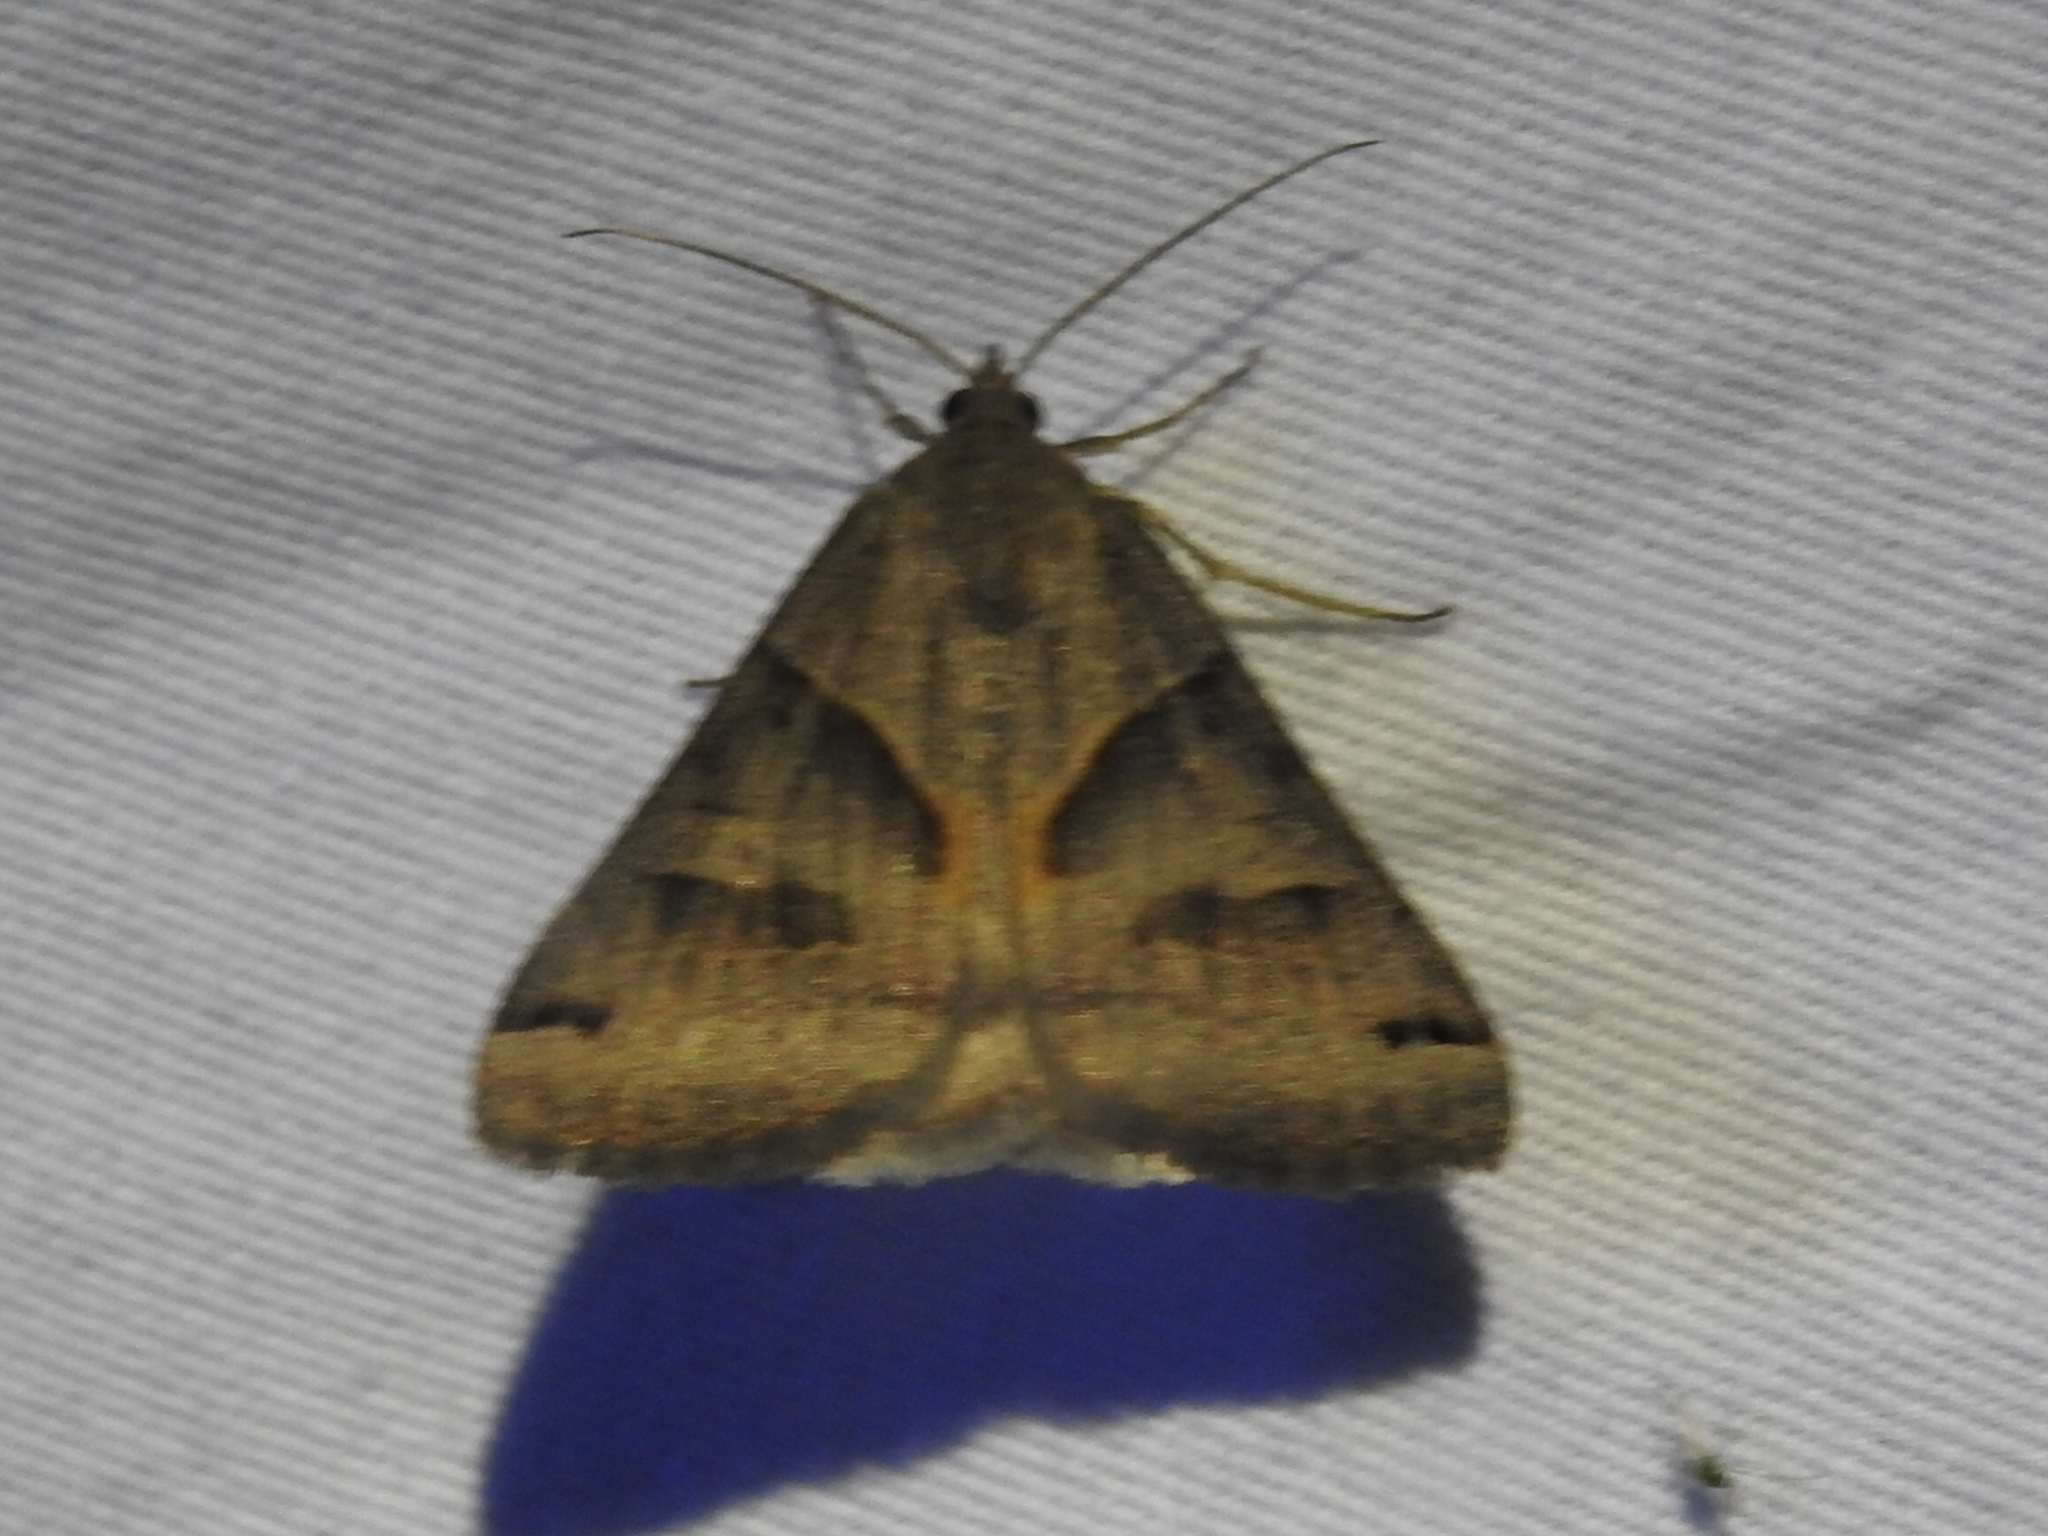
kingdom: Animalia
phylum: Arthropoda
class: Insecta
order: Lepidoptera
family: Erebidae
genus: Caenurgina
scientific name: Caenurgina erechtea
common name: Forage looper moth
